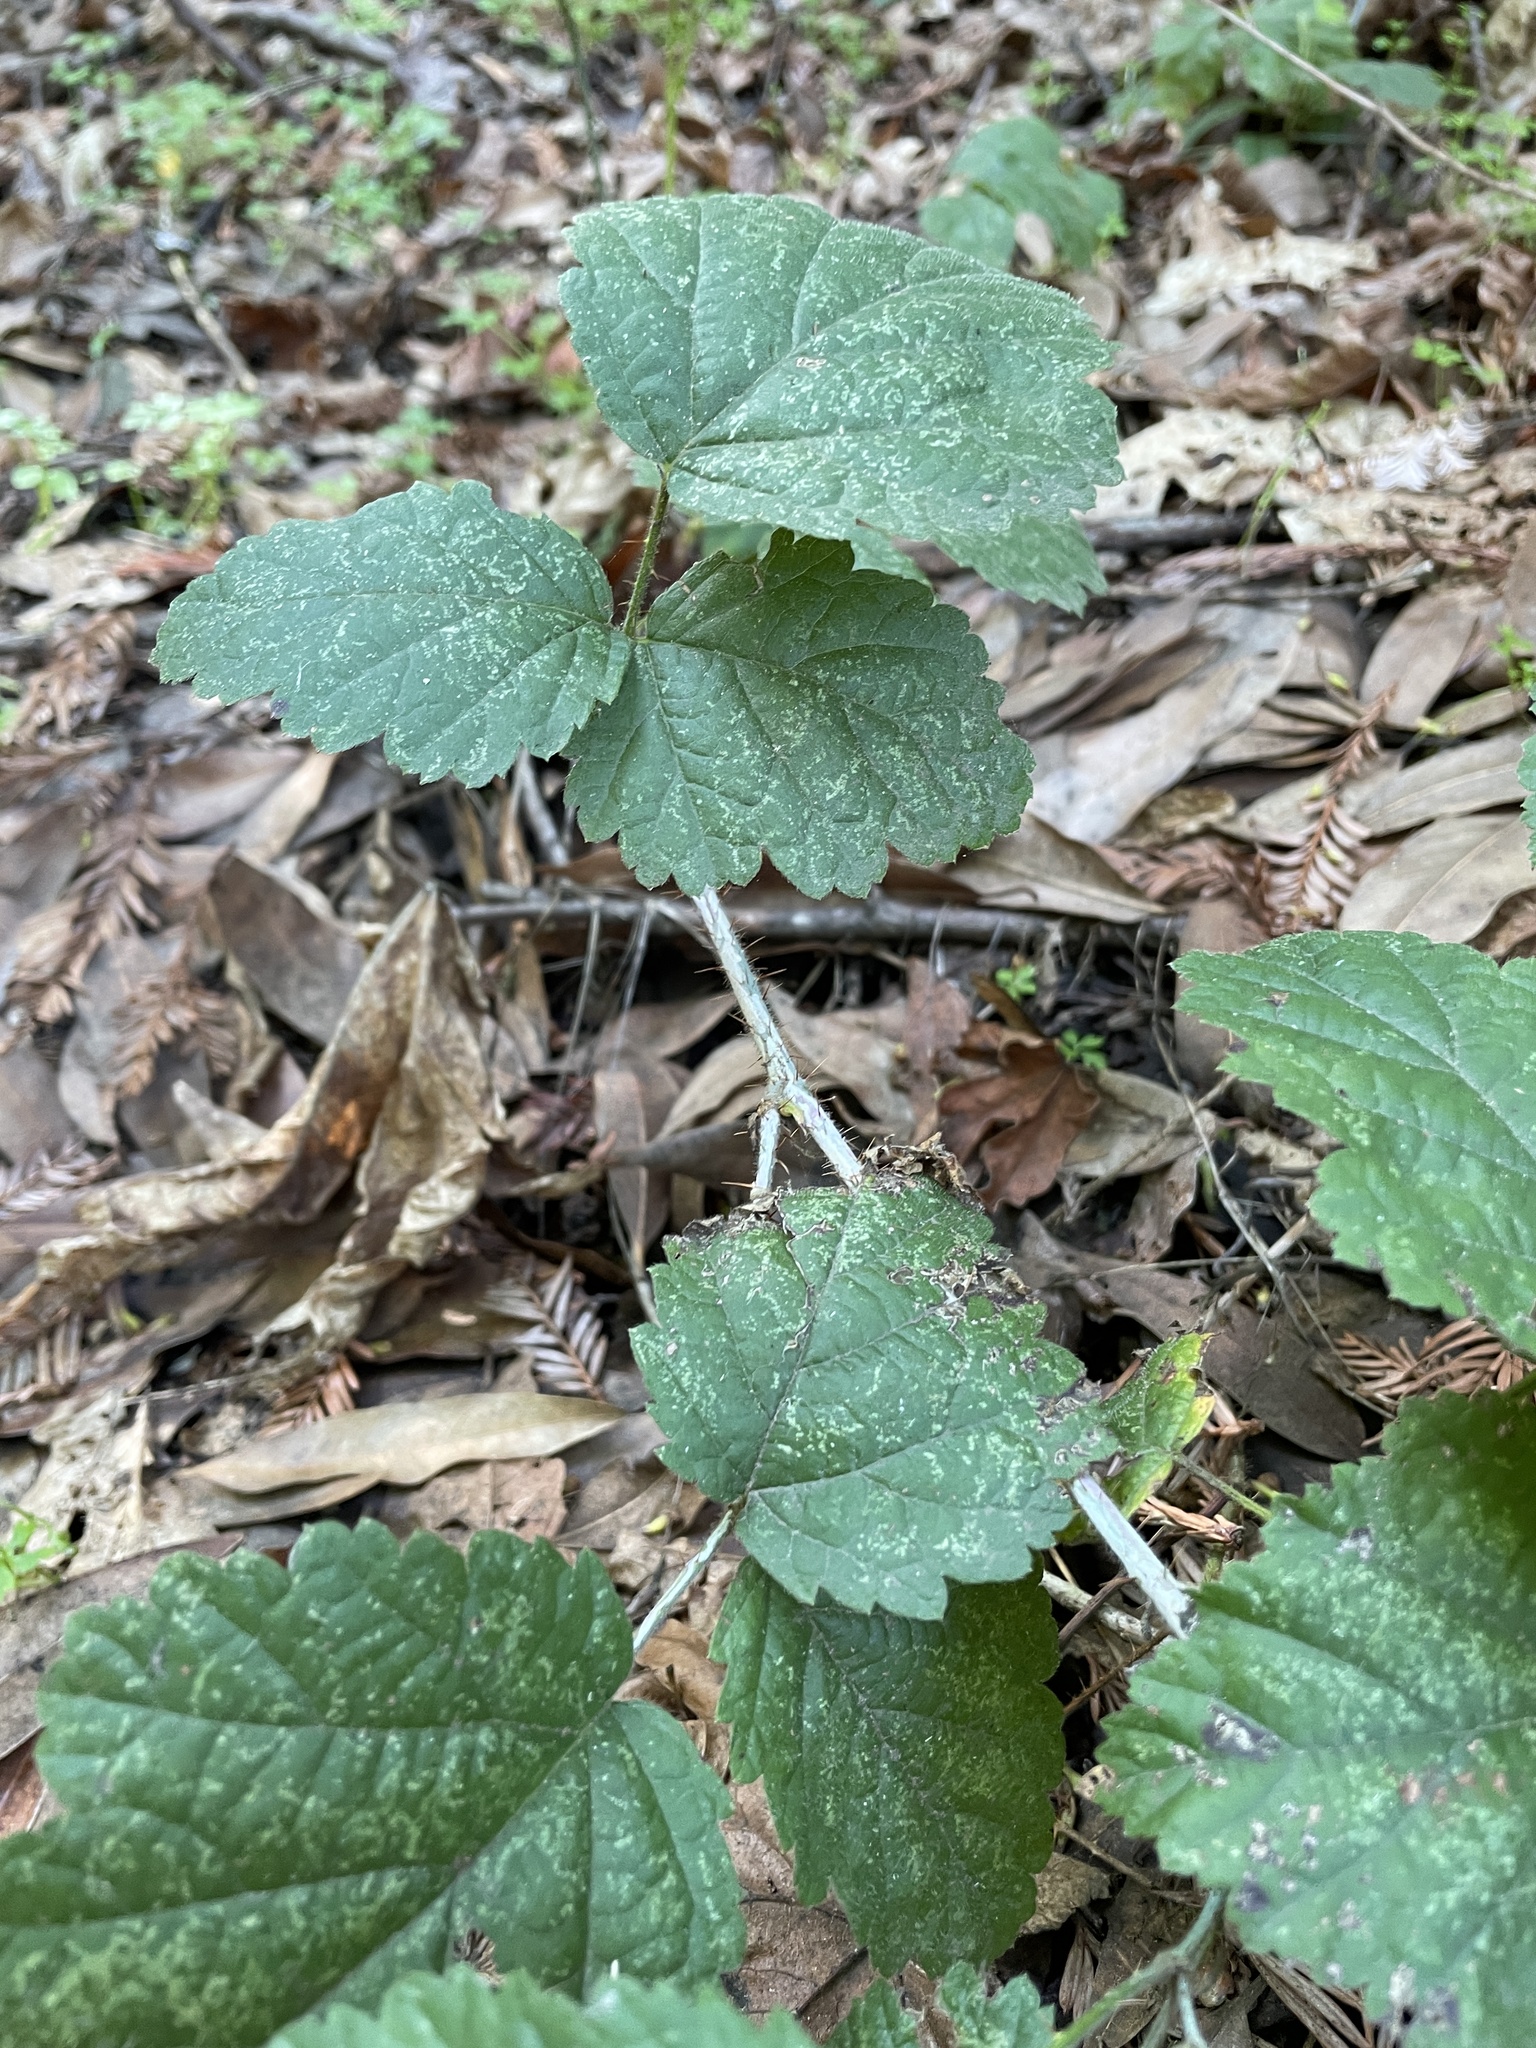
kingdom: Plantae
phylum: Tracheophyta
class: Magnoliopsida
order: Rosales
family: Rosaceae
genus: Rubus
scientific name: Rubus ursinus
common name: Pacific blackberry
